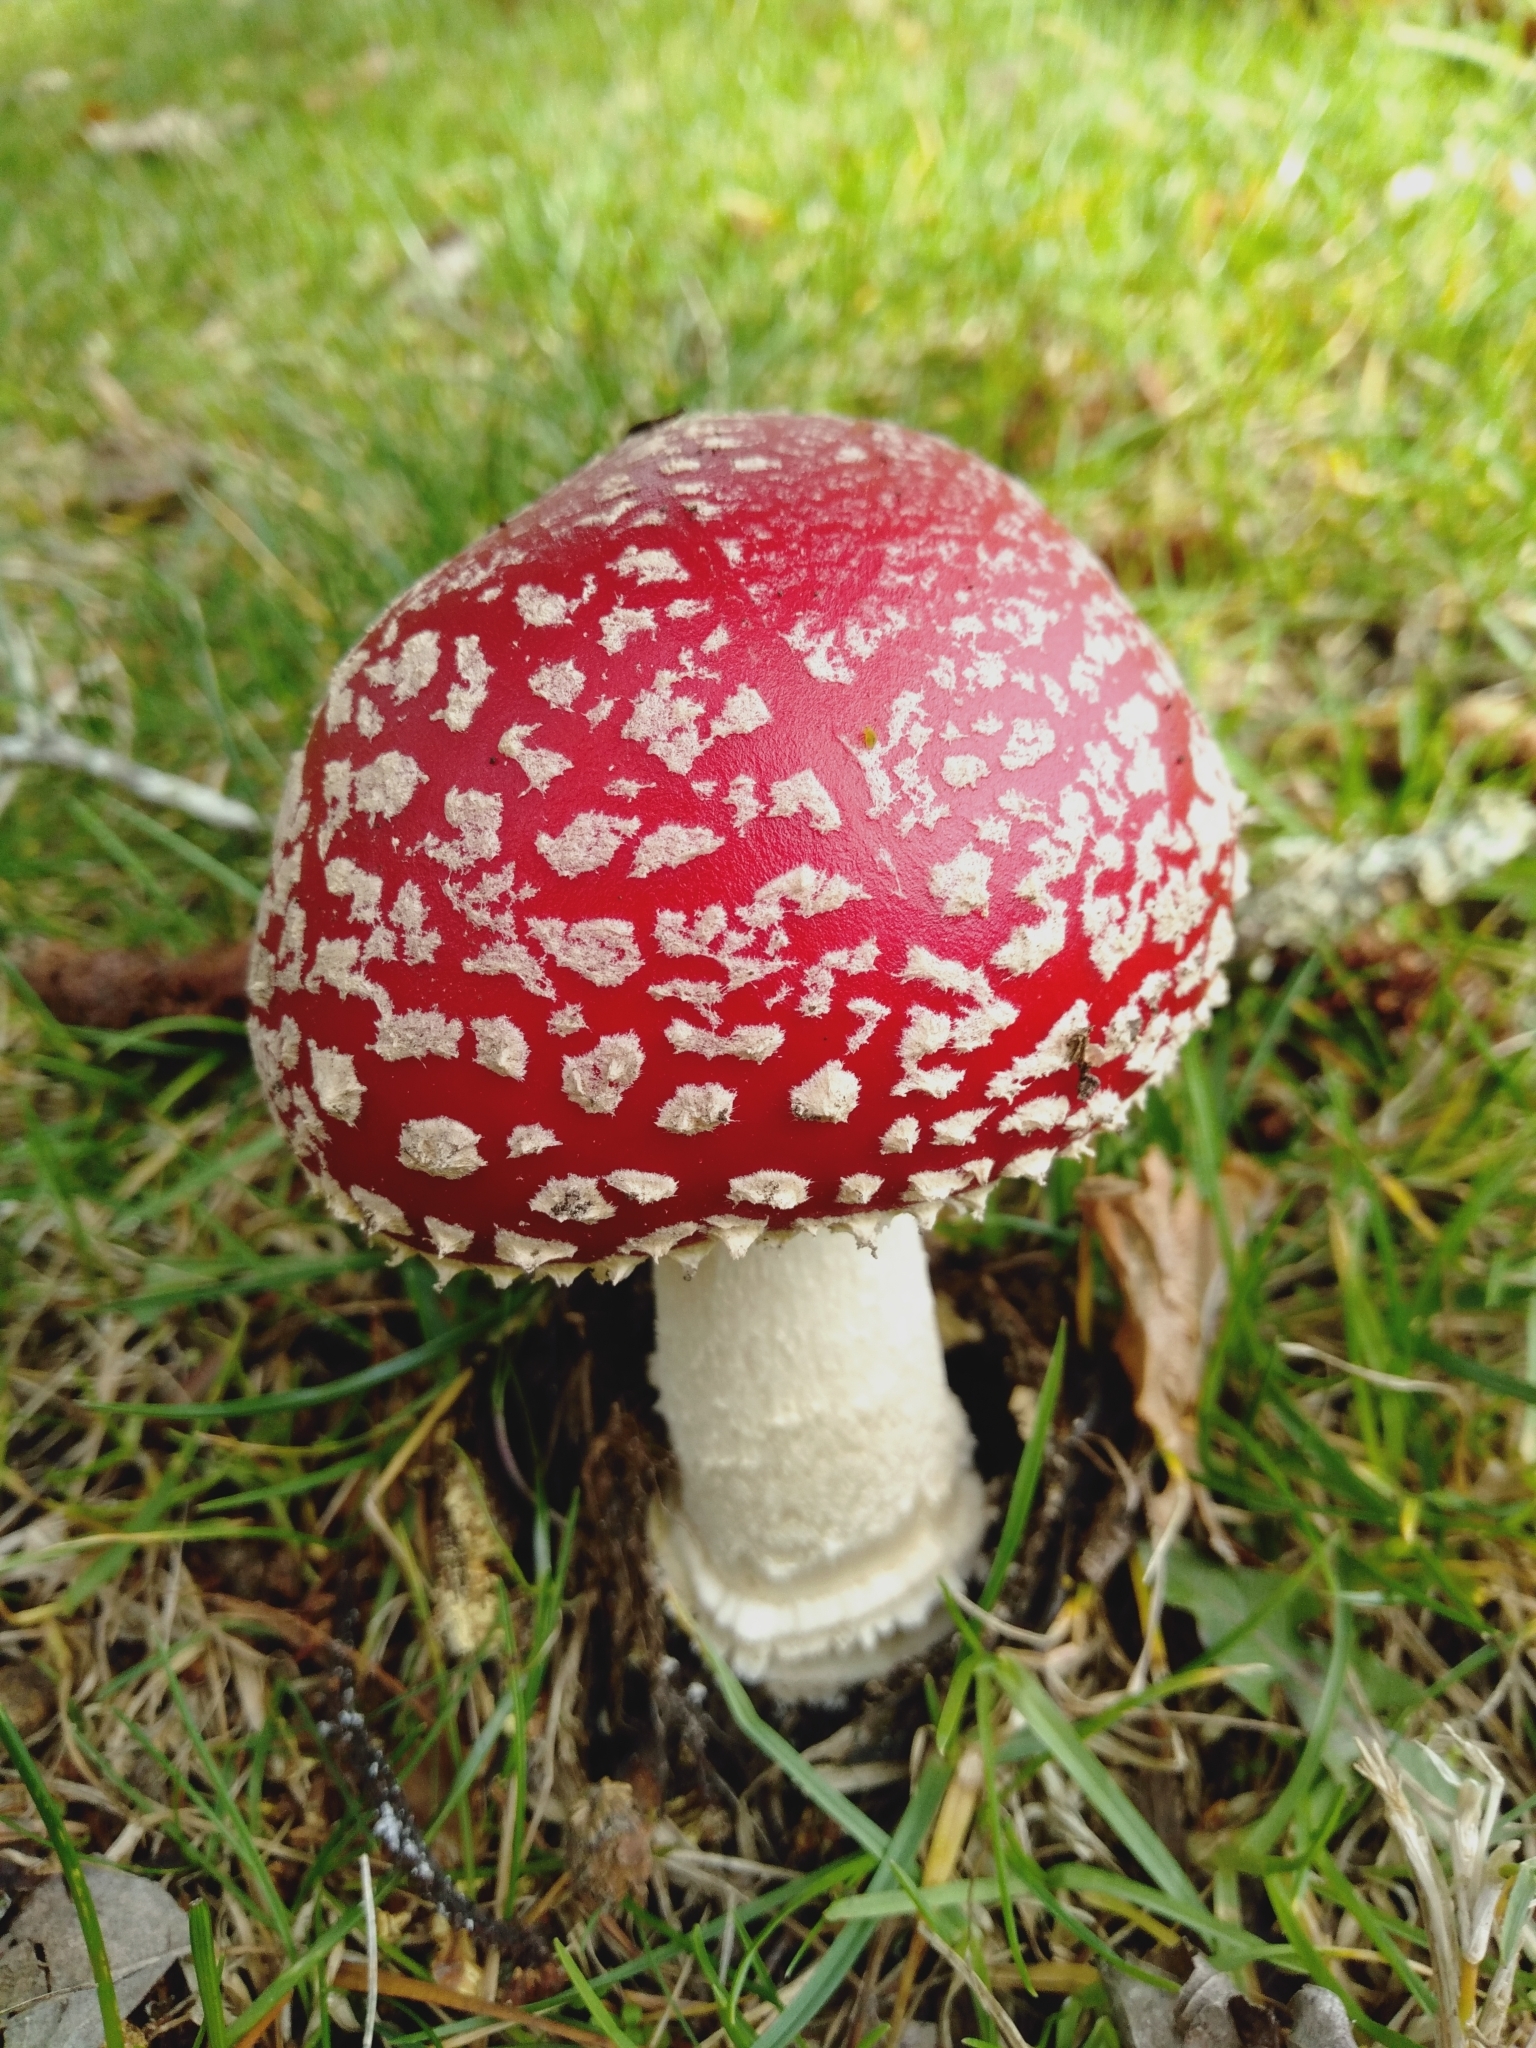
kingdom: Fungi
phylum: Basidiomycota
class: Agaricomycetes
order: Agaricales
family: Amanitaceae
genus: Amanita
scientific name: Amanita muscaria
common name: Fly agaric
